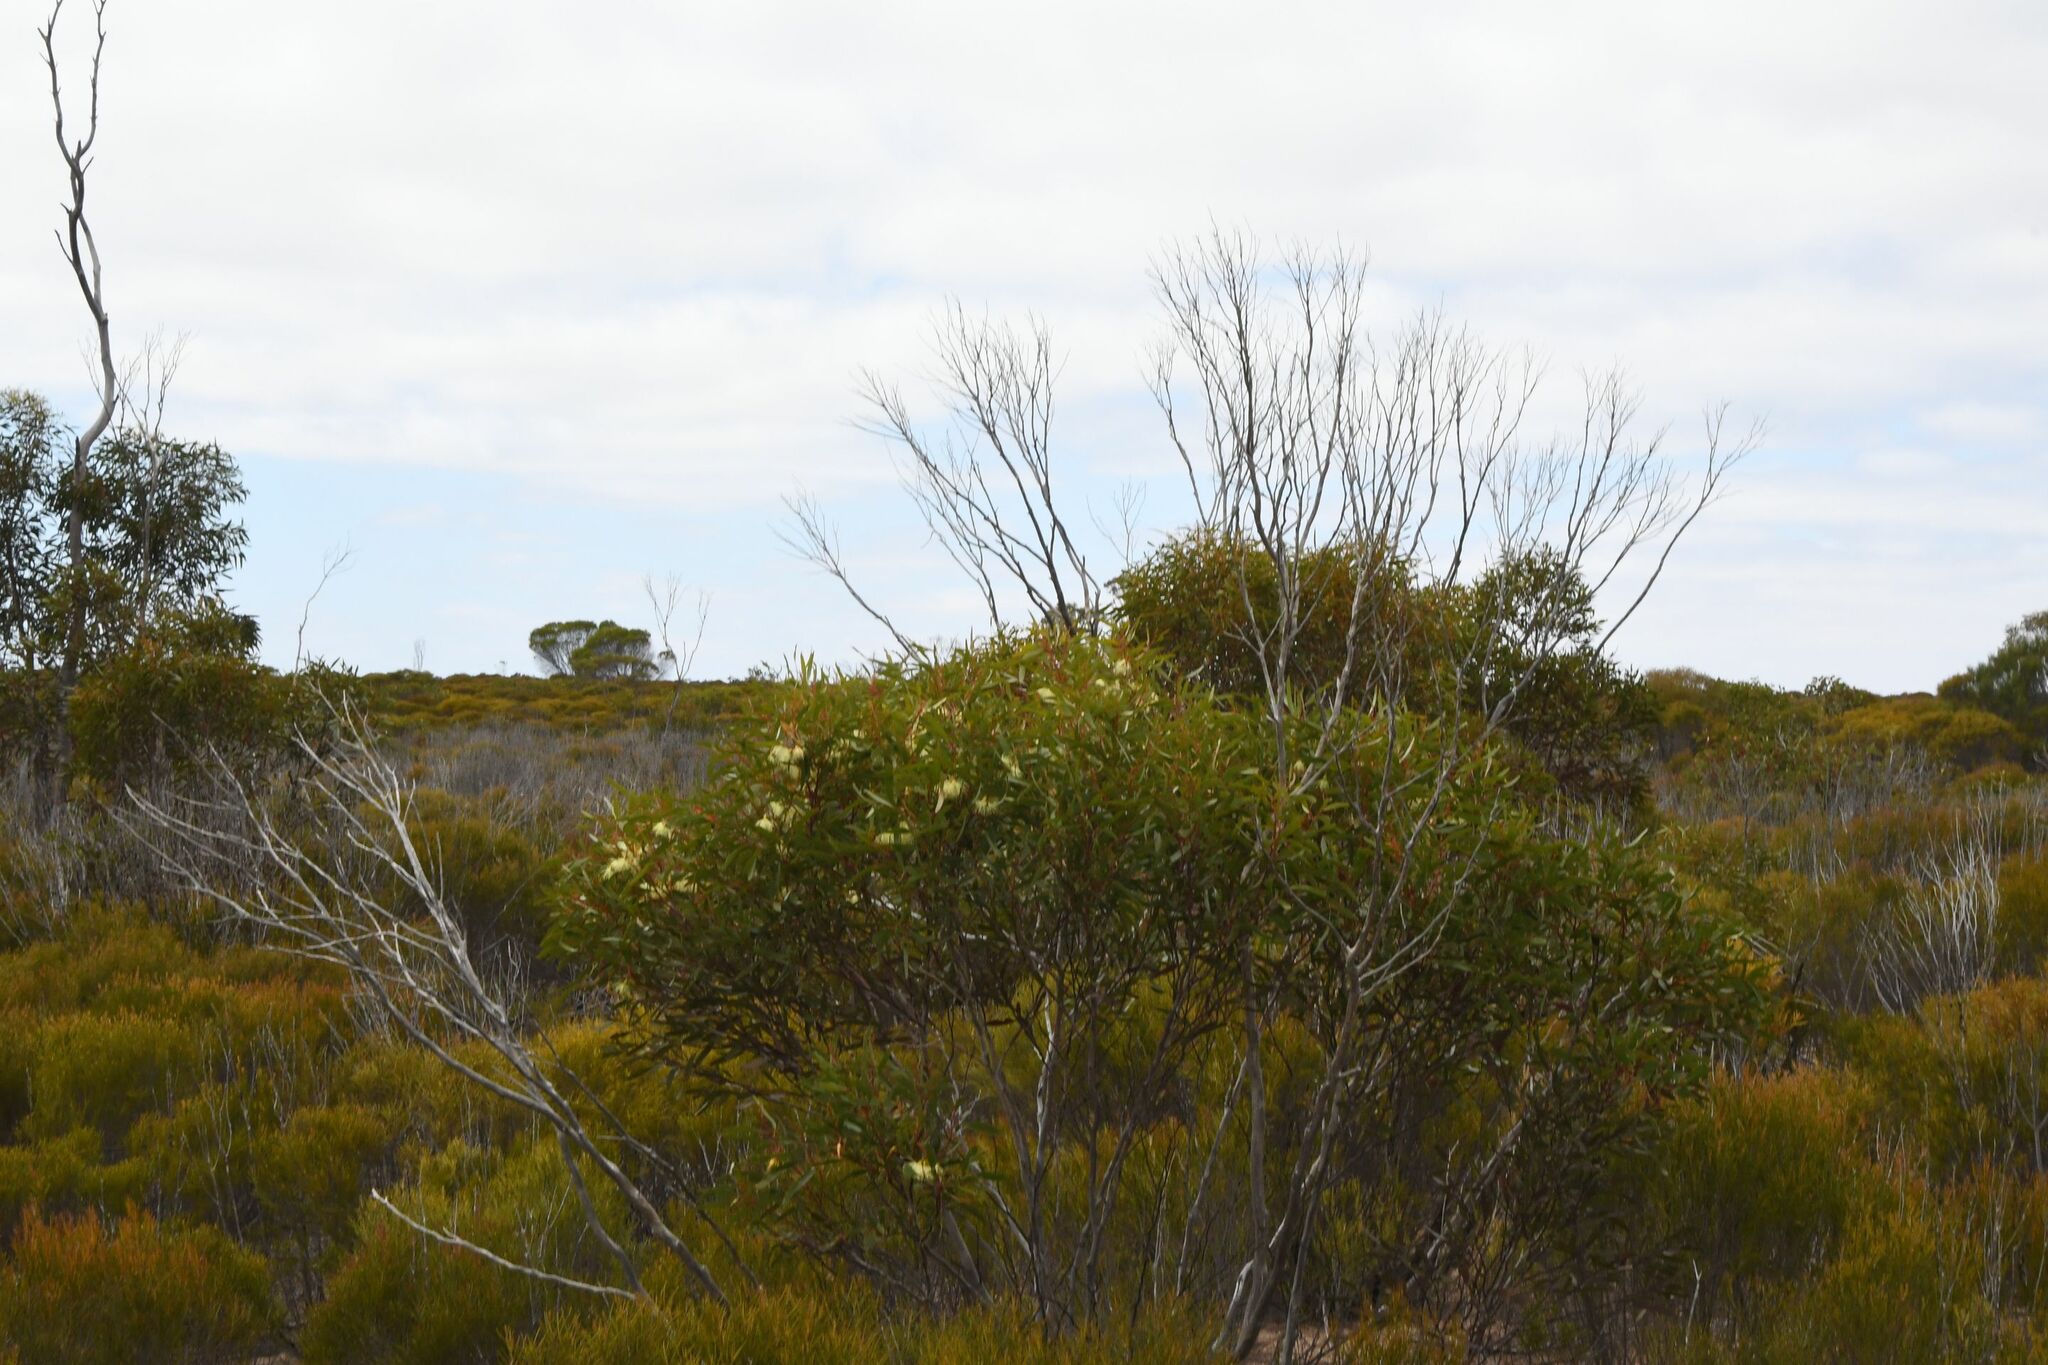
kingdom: Plantae
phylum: Tracheophyta
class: Magnoliopsida
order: Myrtales
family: Myrtaceae
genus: Eucalyptus
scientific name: Eucalyptus sporadica
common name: Burngup mallee
